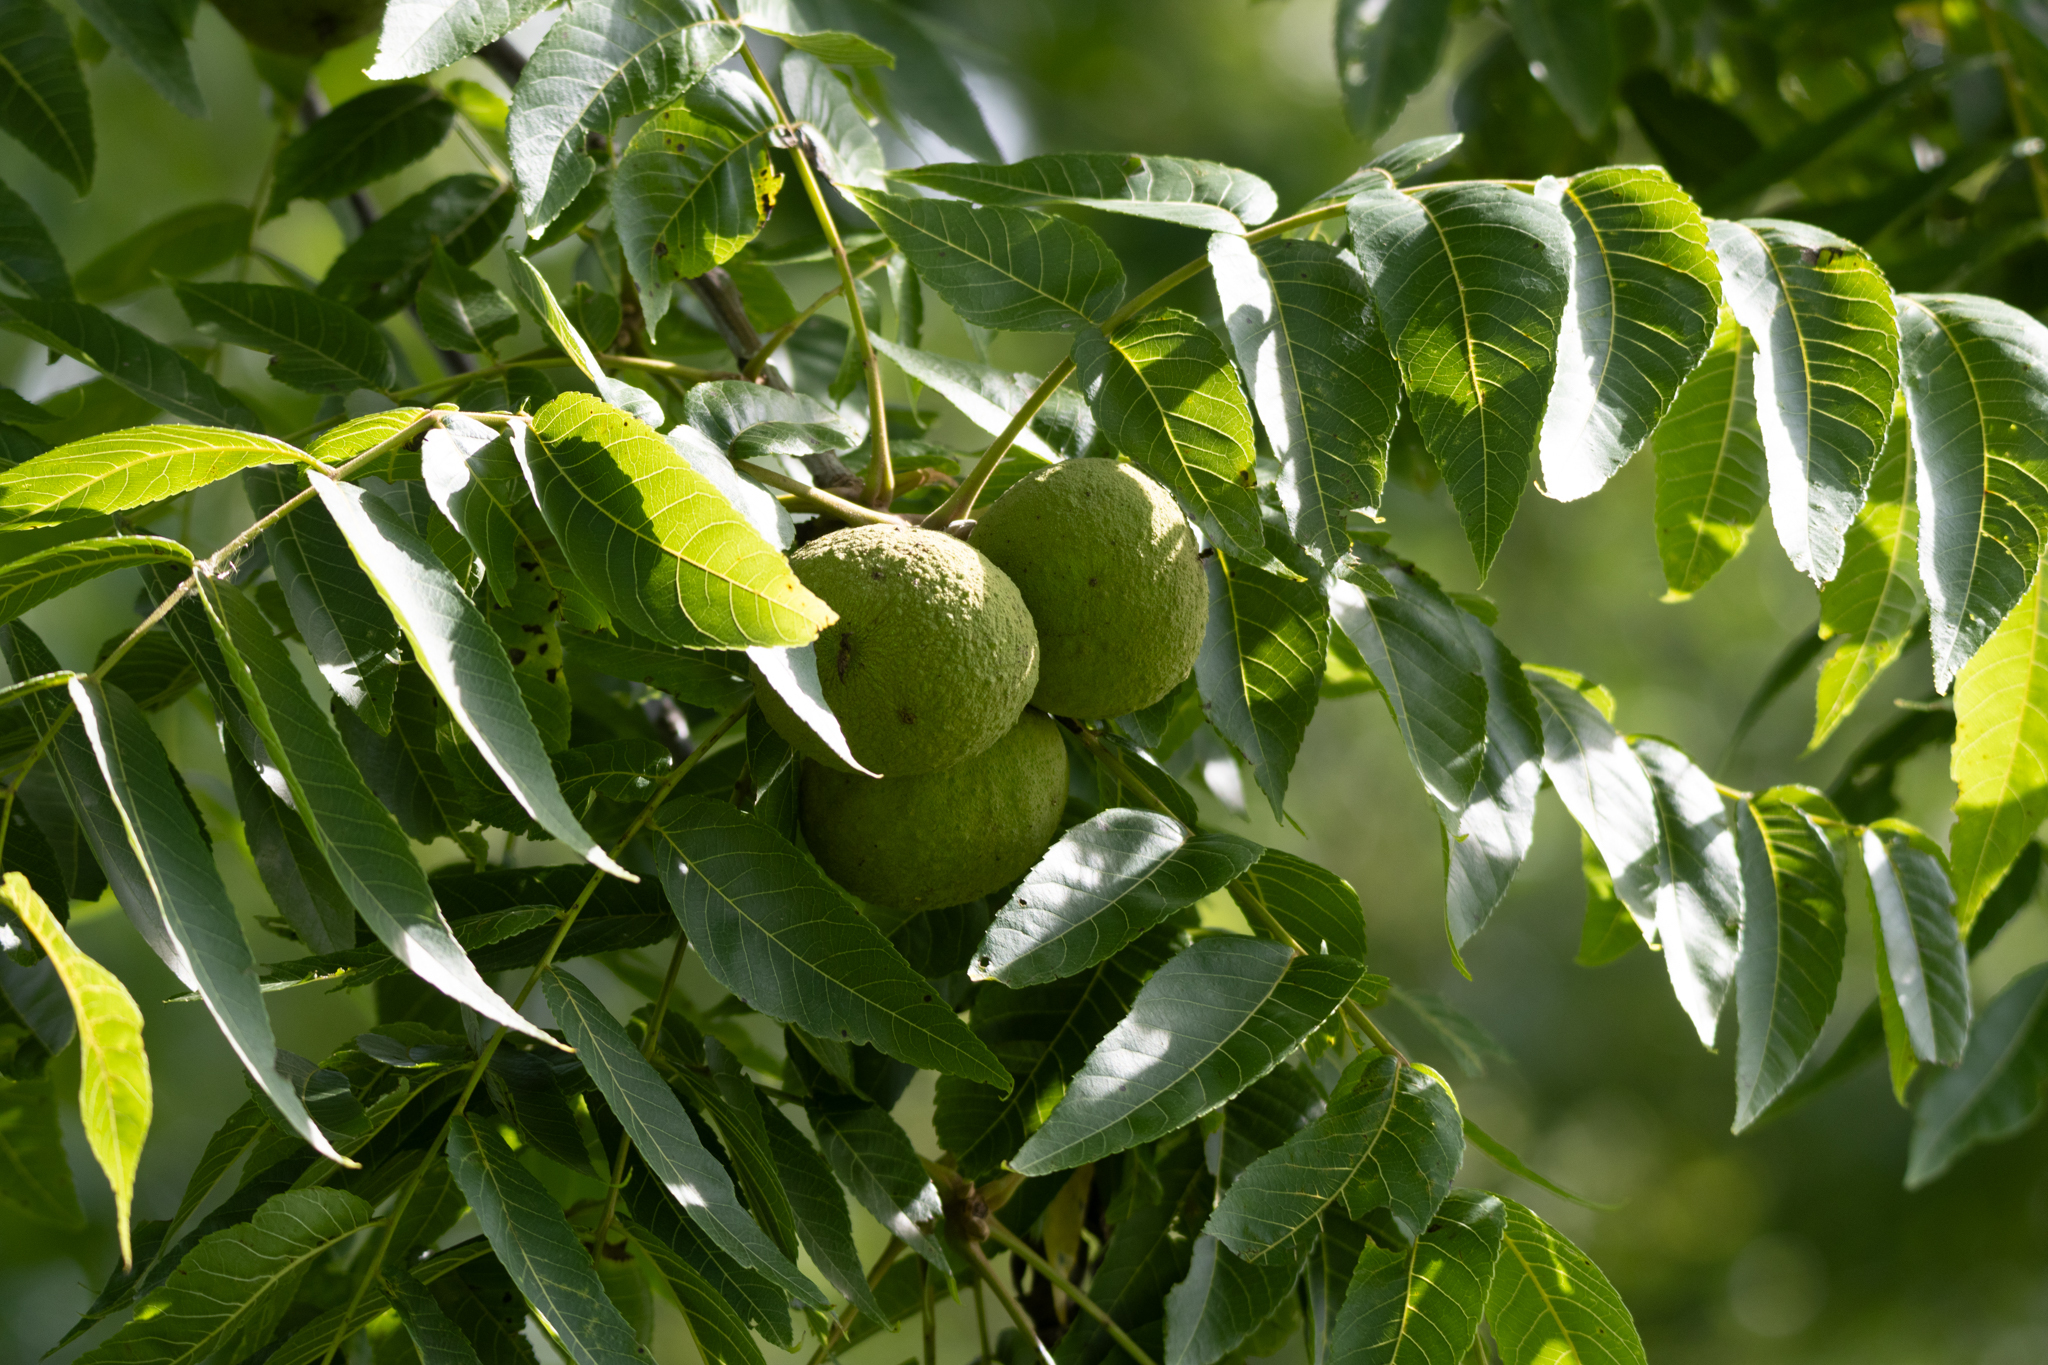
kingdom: Plantae
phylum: Tracheophyta
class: Magnoliopsida
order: Fagales
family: Juglandaceae
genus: Juglans
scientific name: Juglans nigra
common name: Black walnut
